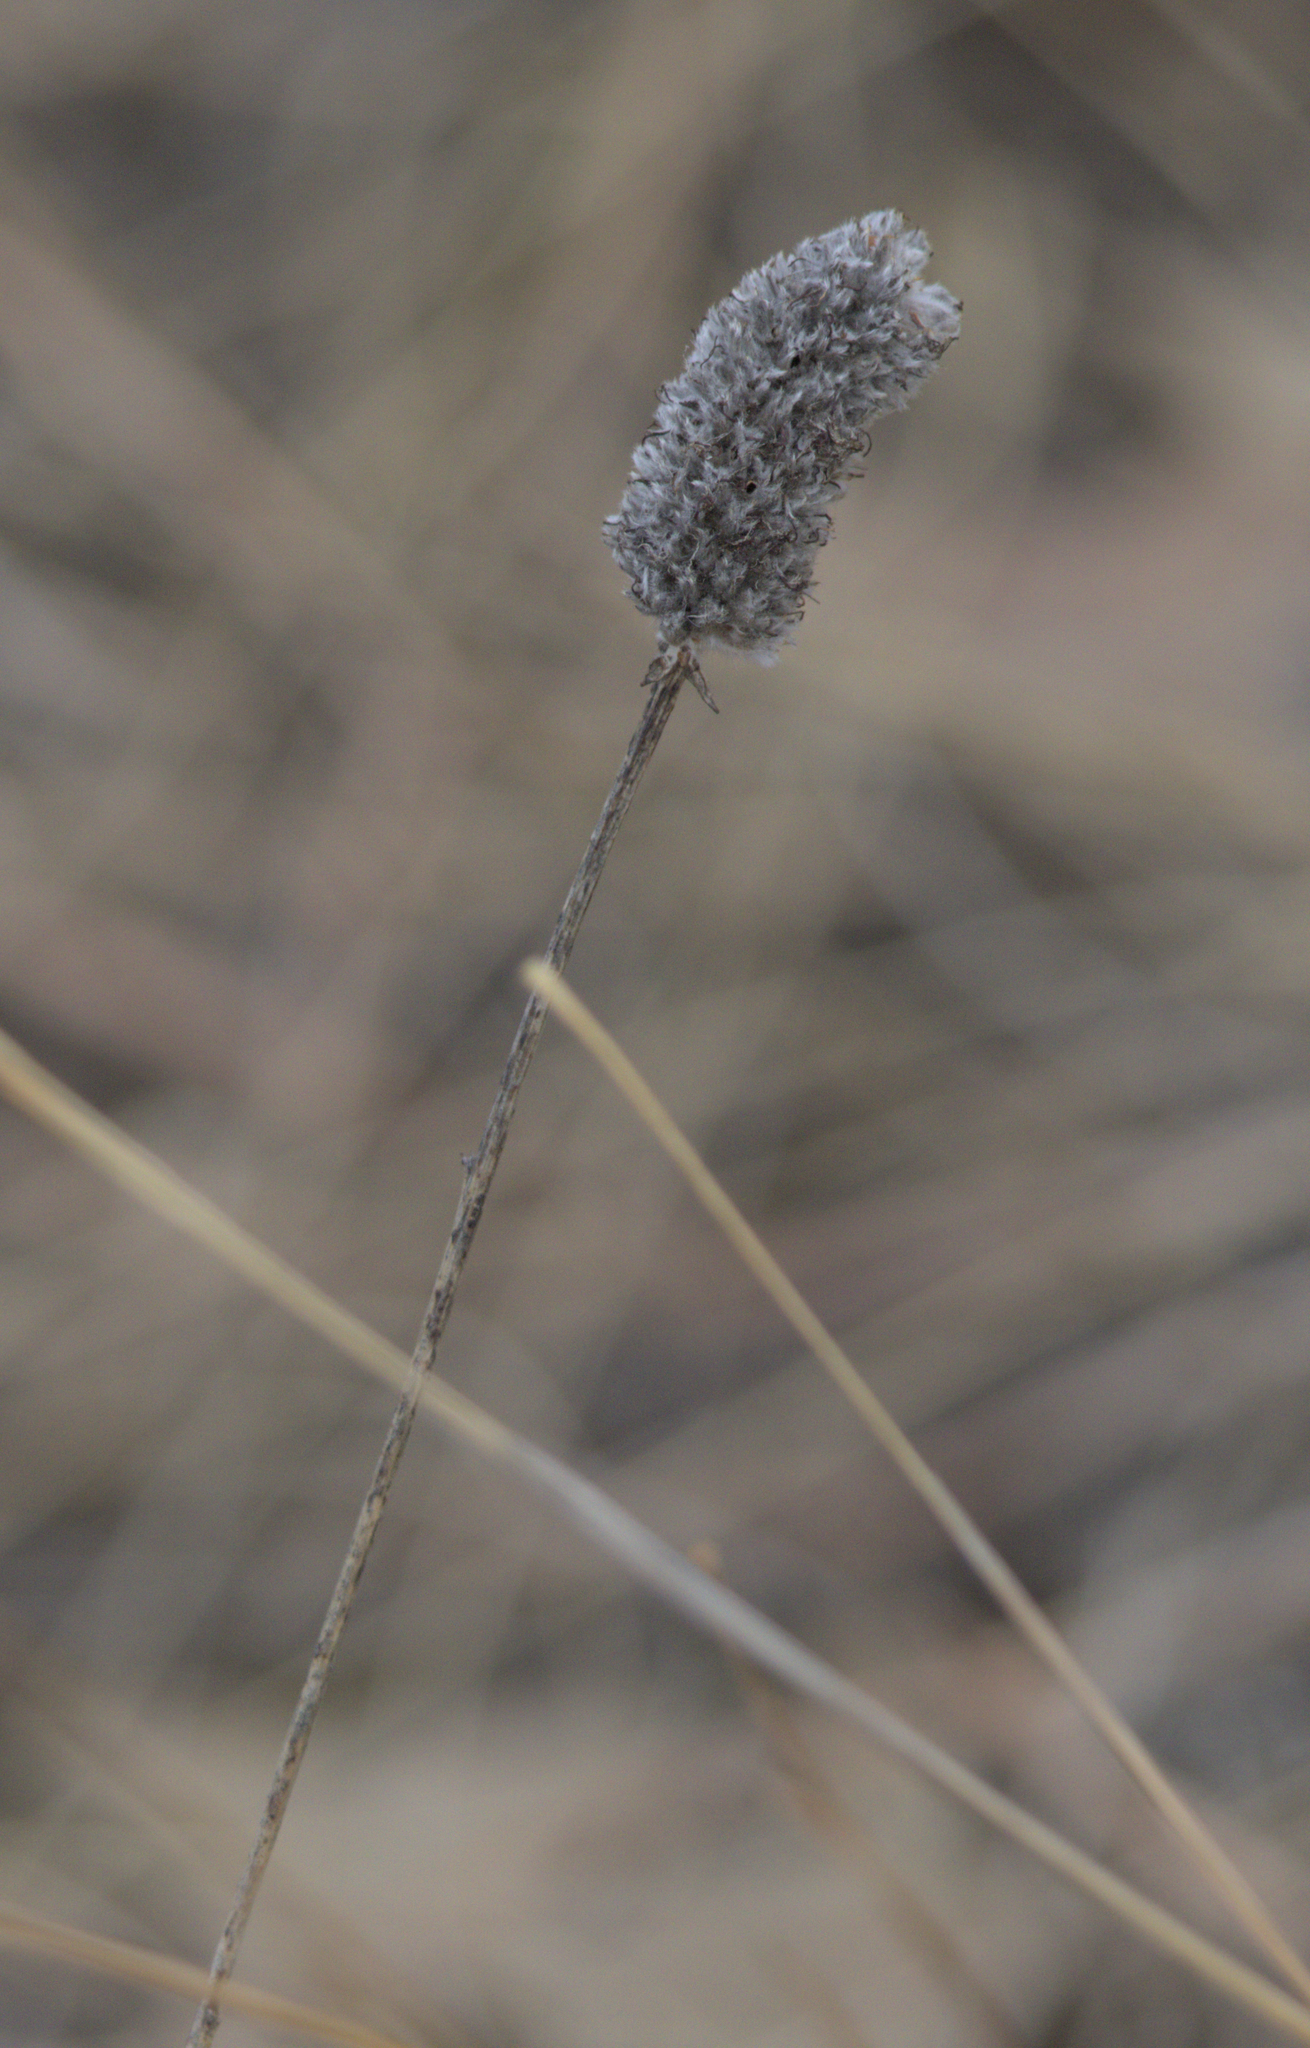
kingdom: Plantae
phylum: Tracheophyta
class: Magnoliopsida
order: Fabales
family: Fabaceae
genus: Dalea
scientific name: Dalea purpurea
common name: Purple prairie-clover
